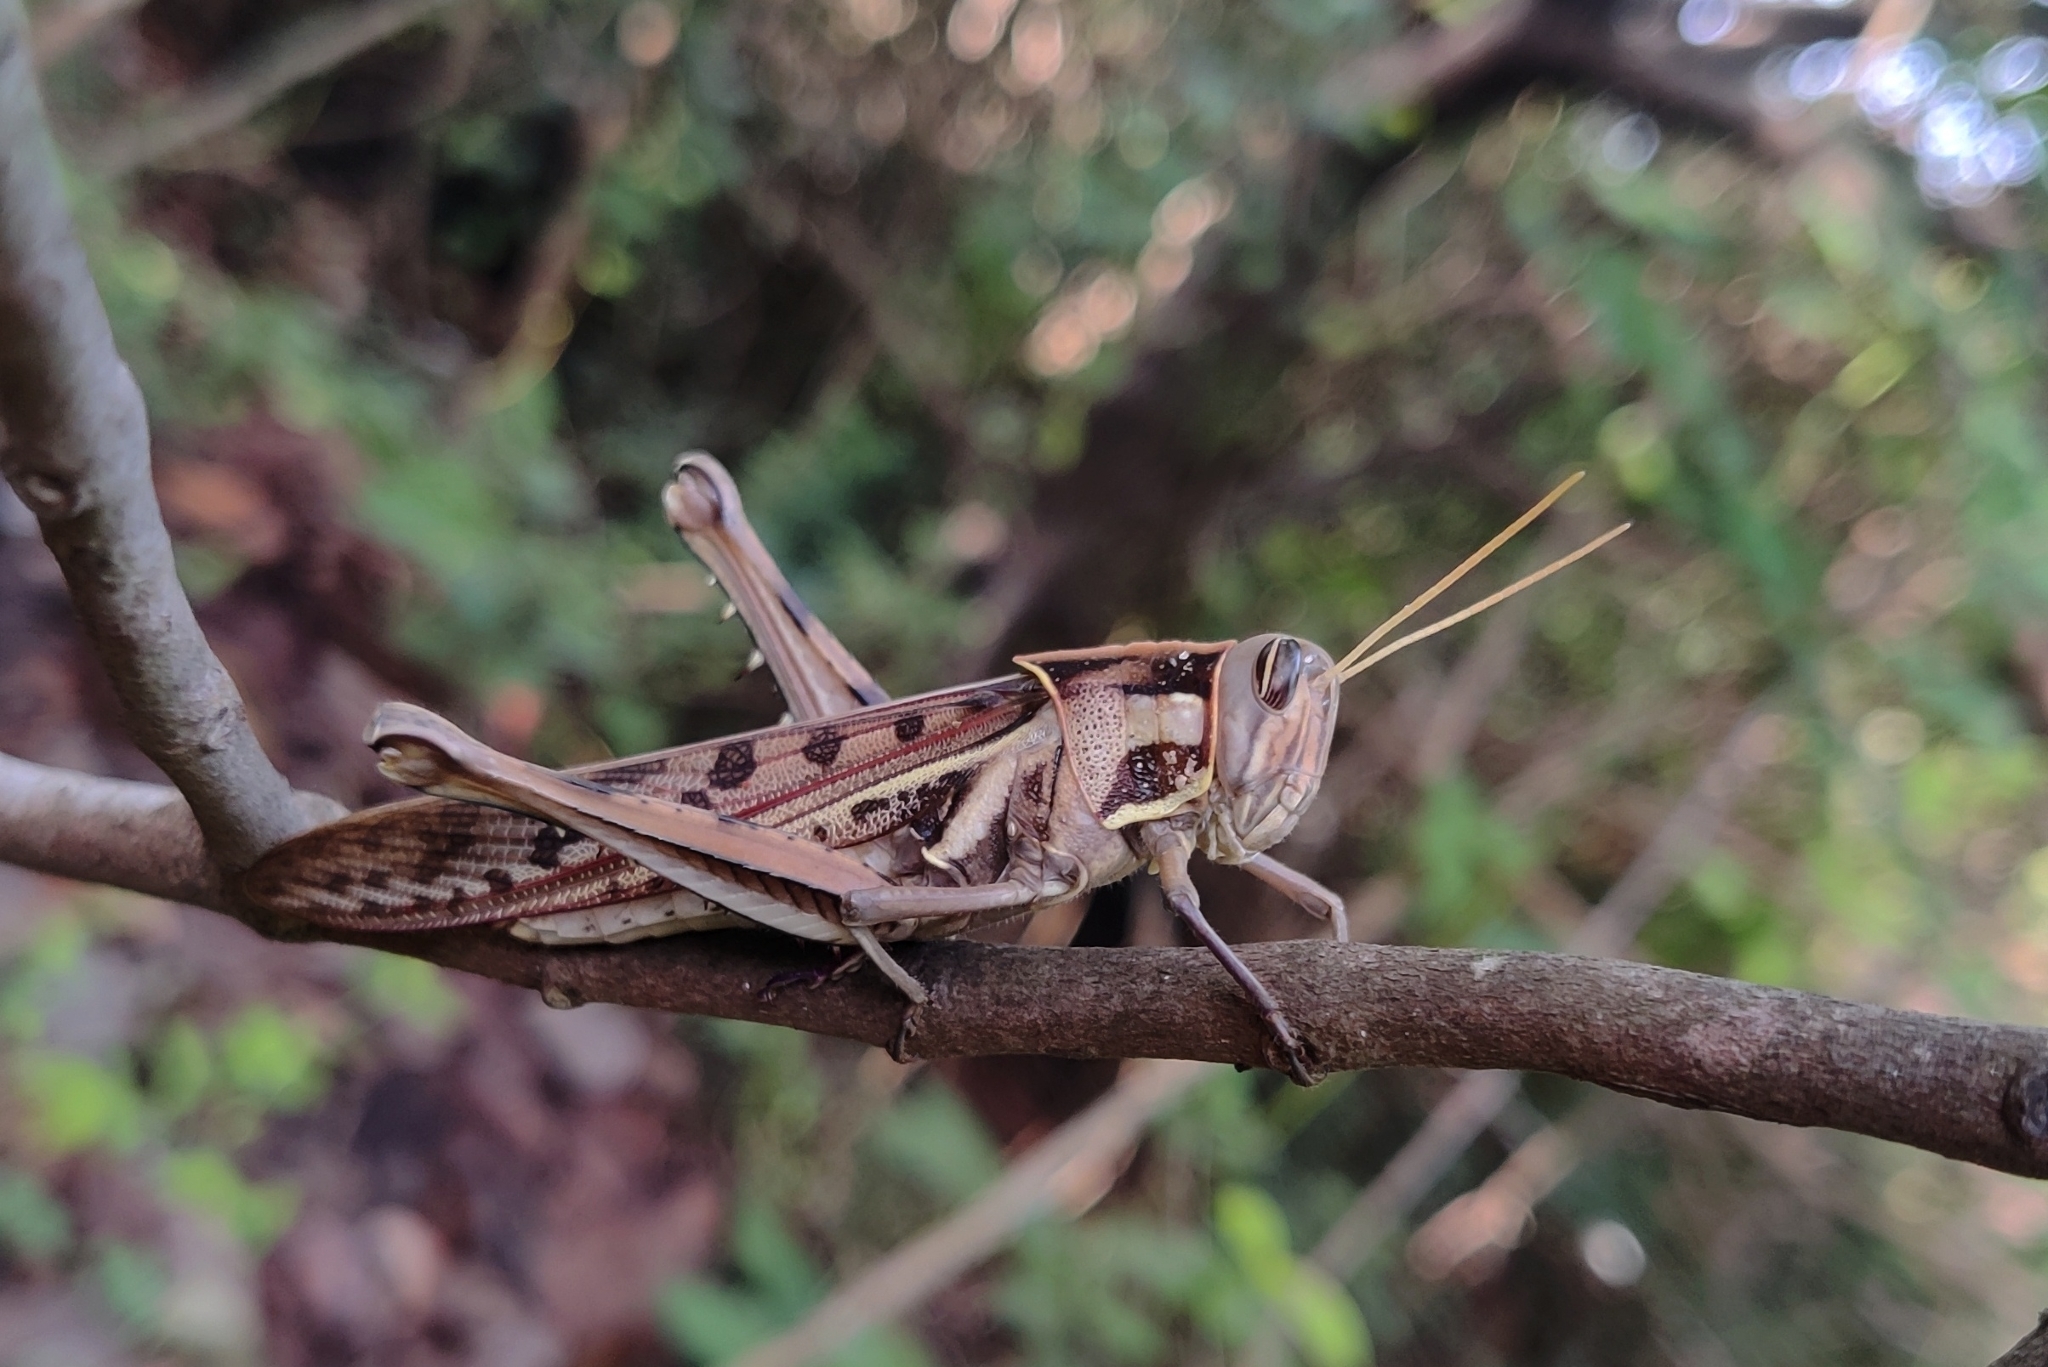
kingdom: Animalia
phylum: Arthropoda
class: Insecta
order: Orthoptera
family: Acrididae
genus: Cyrtacanthacris
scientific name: Cyrtacanthacris tatarica
